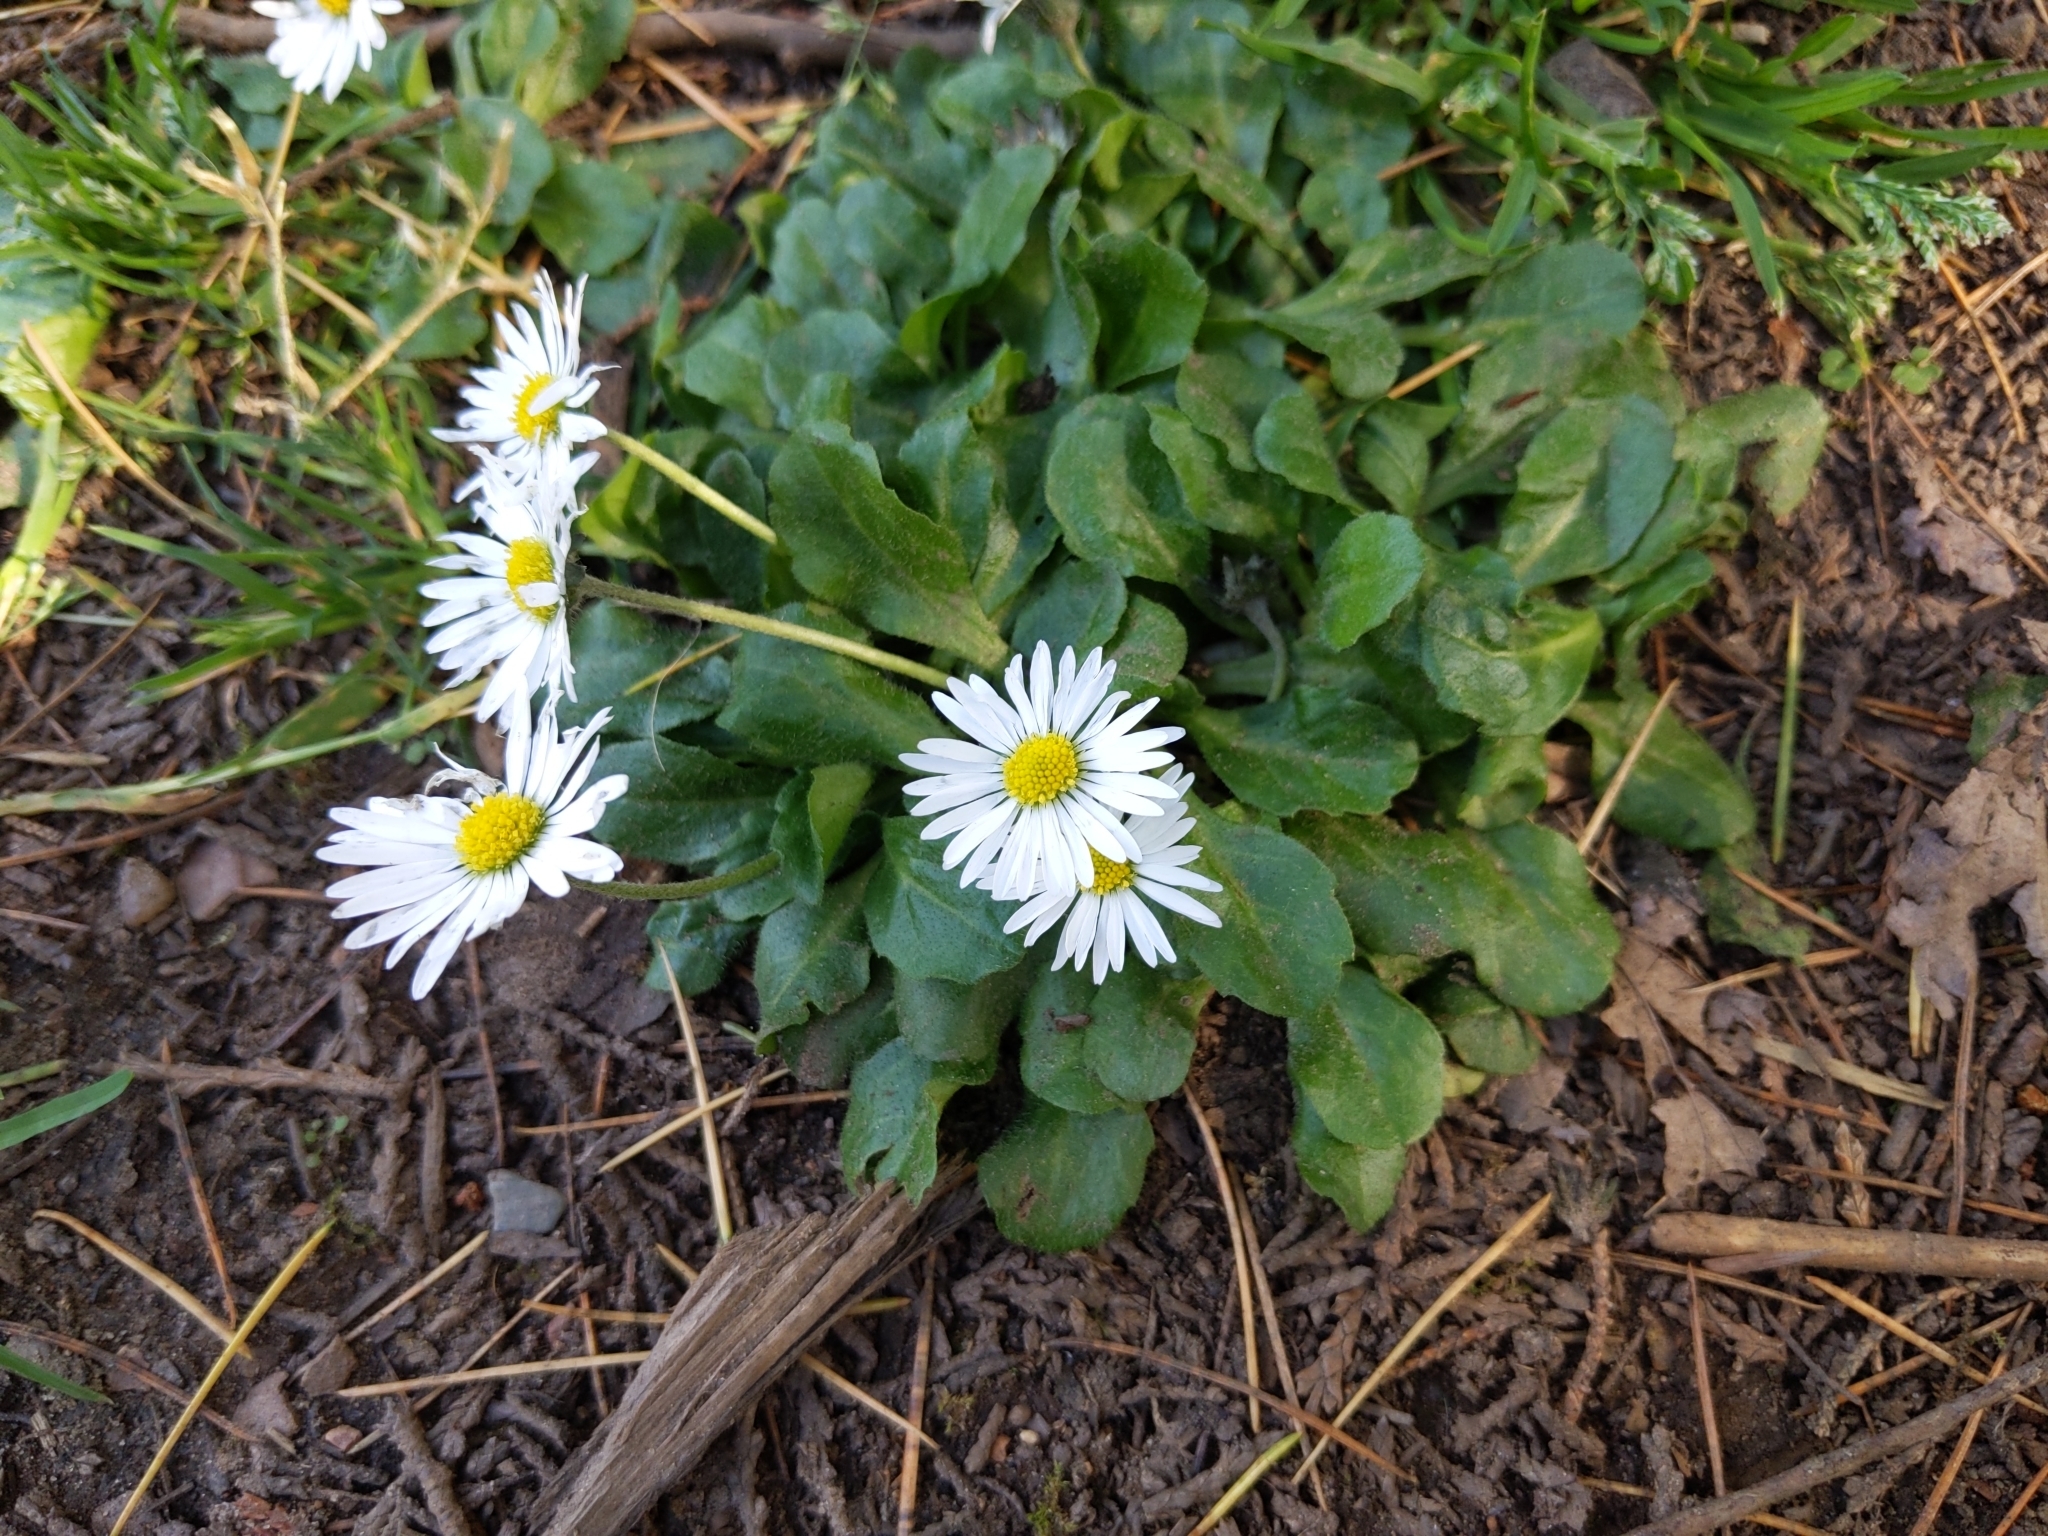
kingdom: Plantae
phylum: Tracheophyta
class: Magnoliopsida
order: Asterales
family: Asteraceae
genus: Bellis
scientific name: Bellis perennis
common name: Lawndaisy
